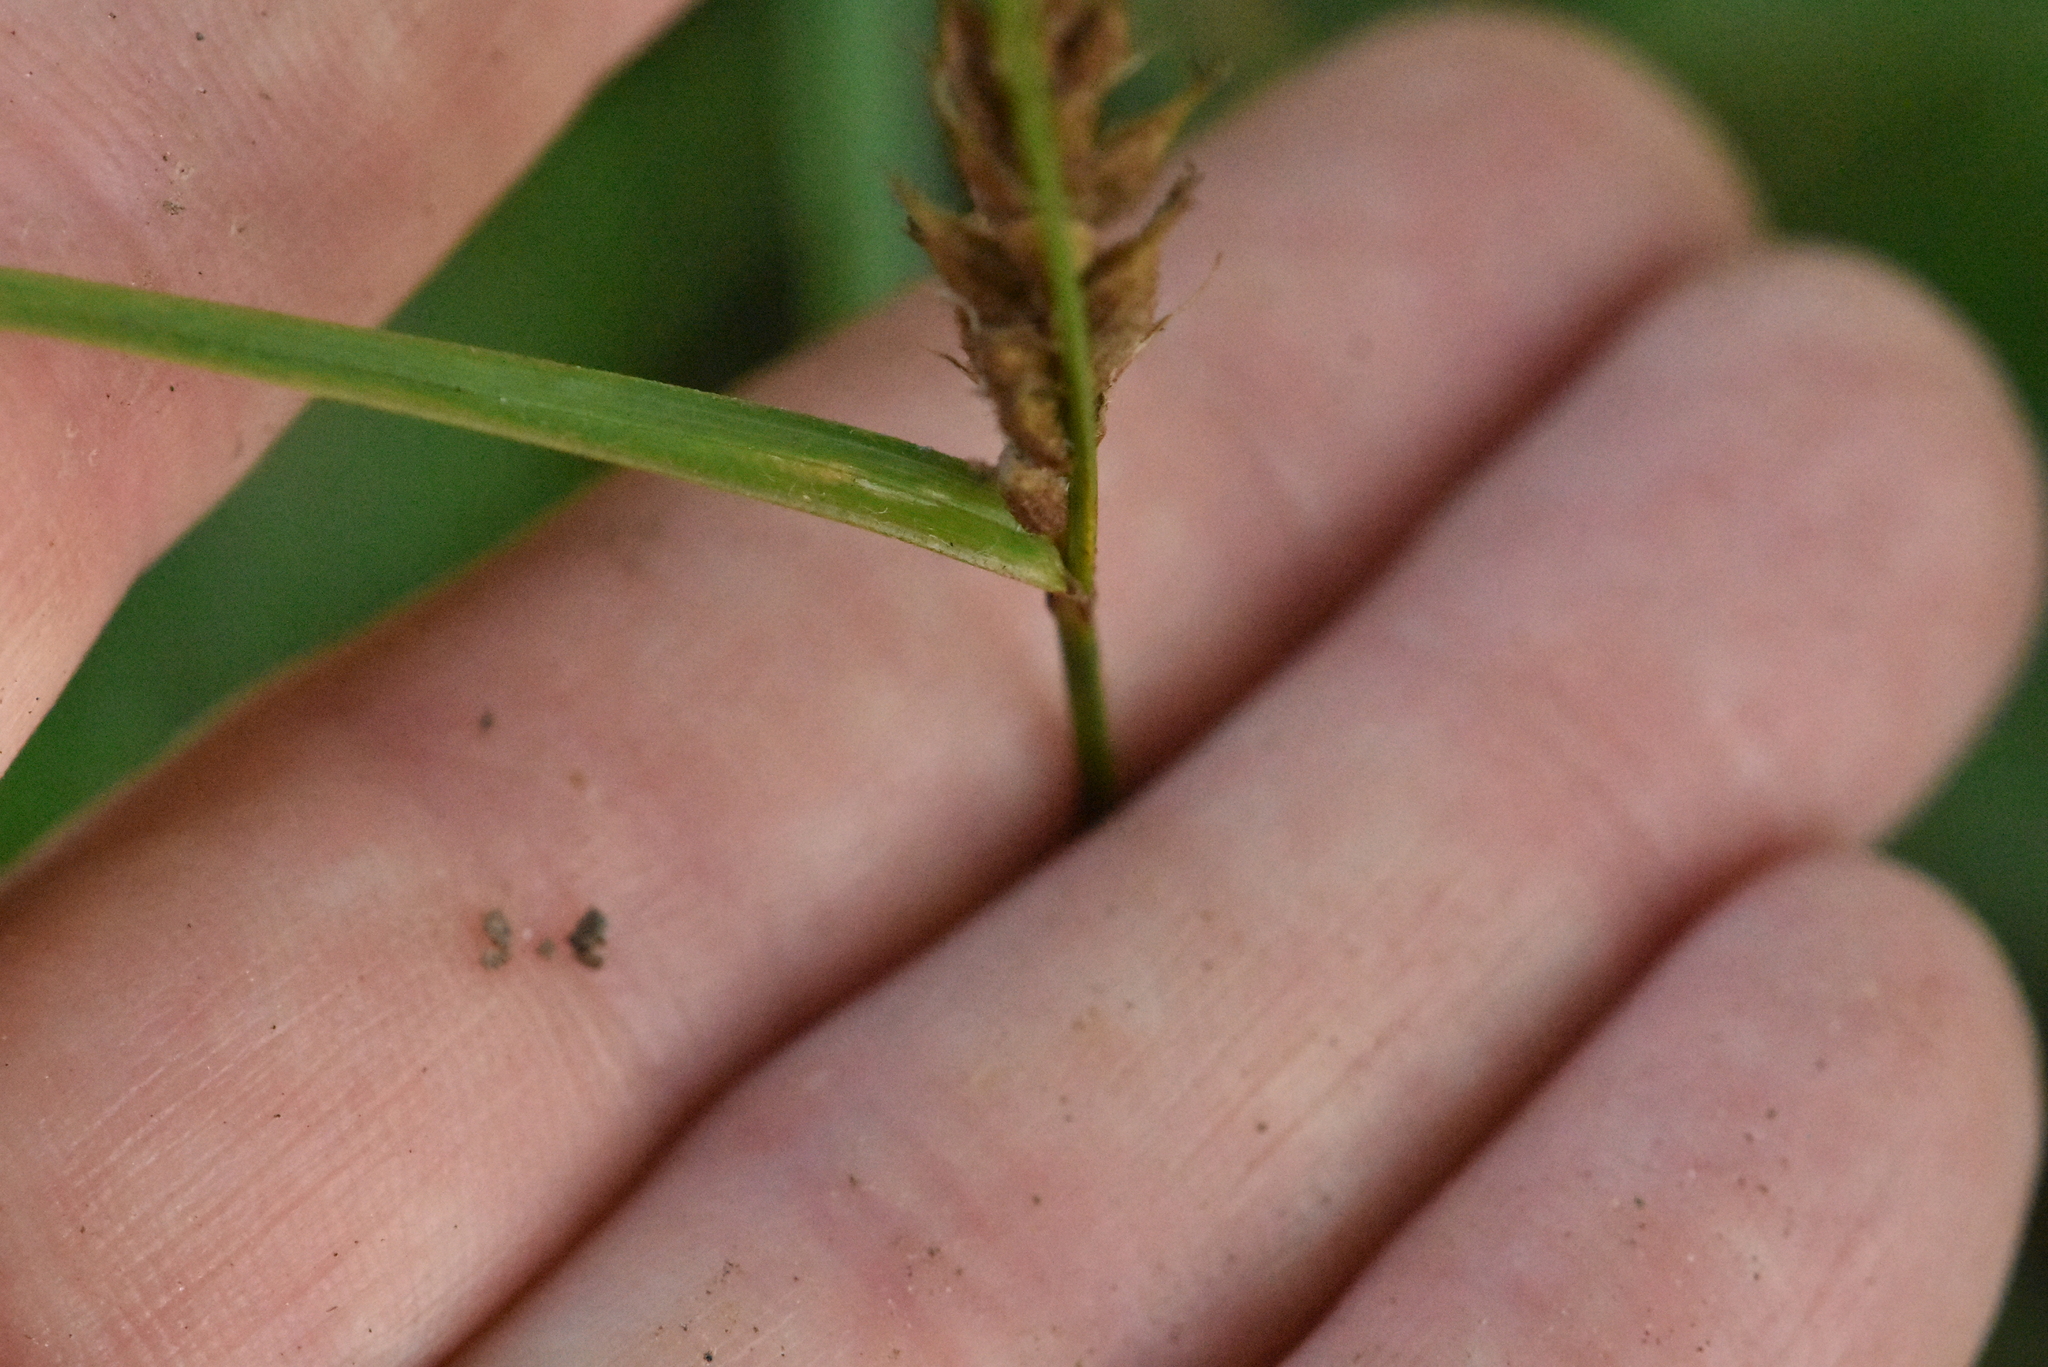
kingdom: Plantae
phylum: Tracheophyta
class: Liliopsida
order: Poales
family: Cyperaceae
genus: Carex
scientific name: Carex hirta
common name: Hairy sedge
